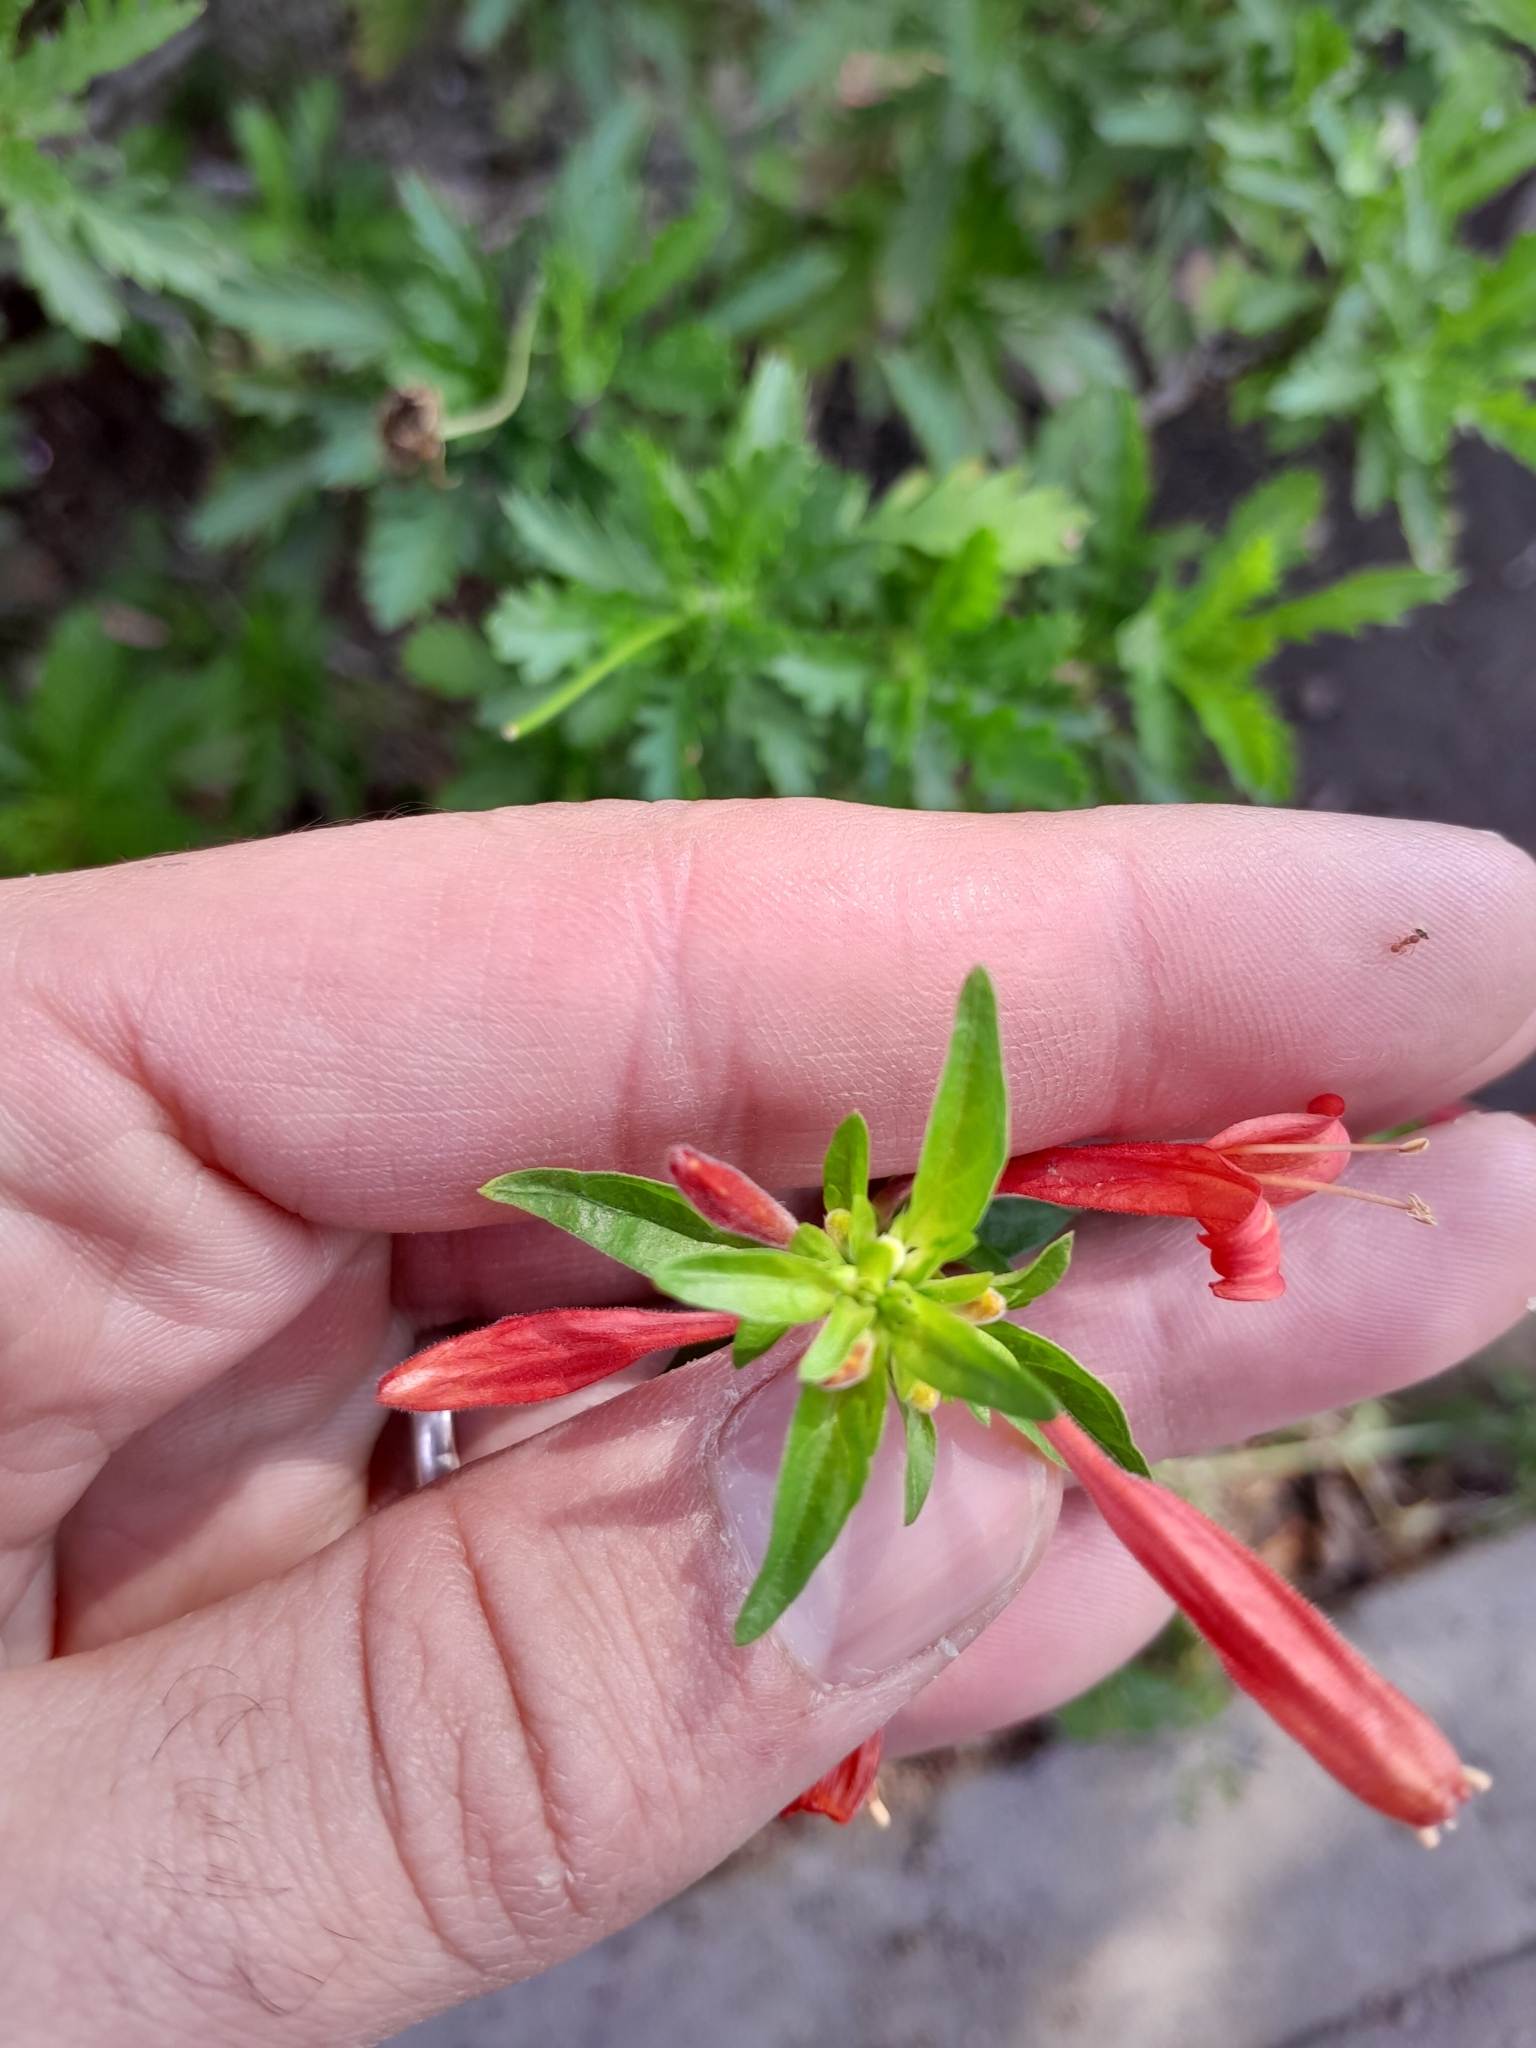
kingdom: Plantae
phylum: Tracheophyta
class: Magnoliopsida
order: Lamiales
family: Acanthaceae
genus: Dicliptera
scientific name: Dicliptera squarrosa
